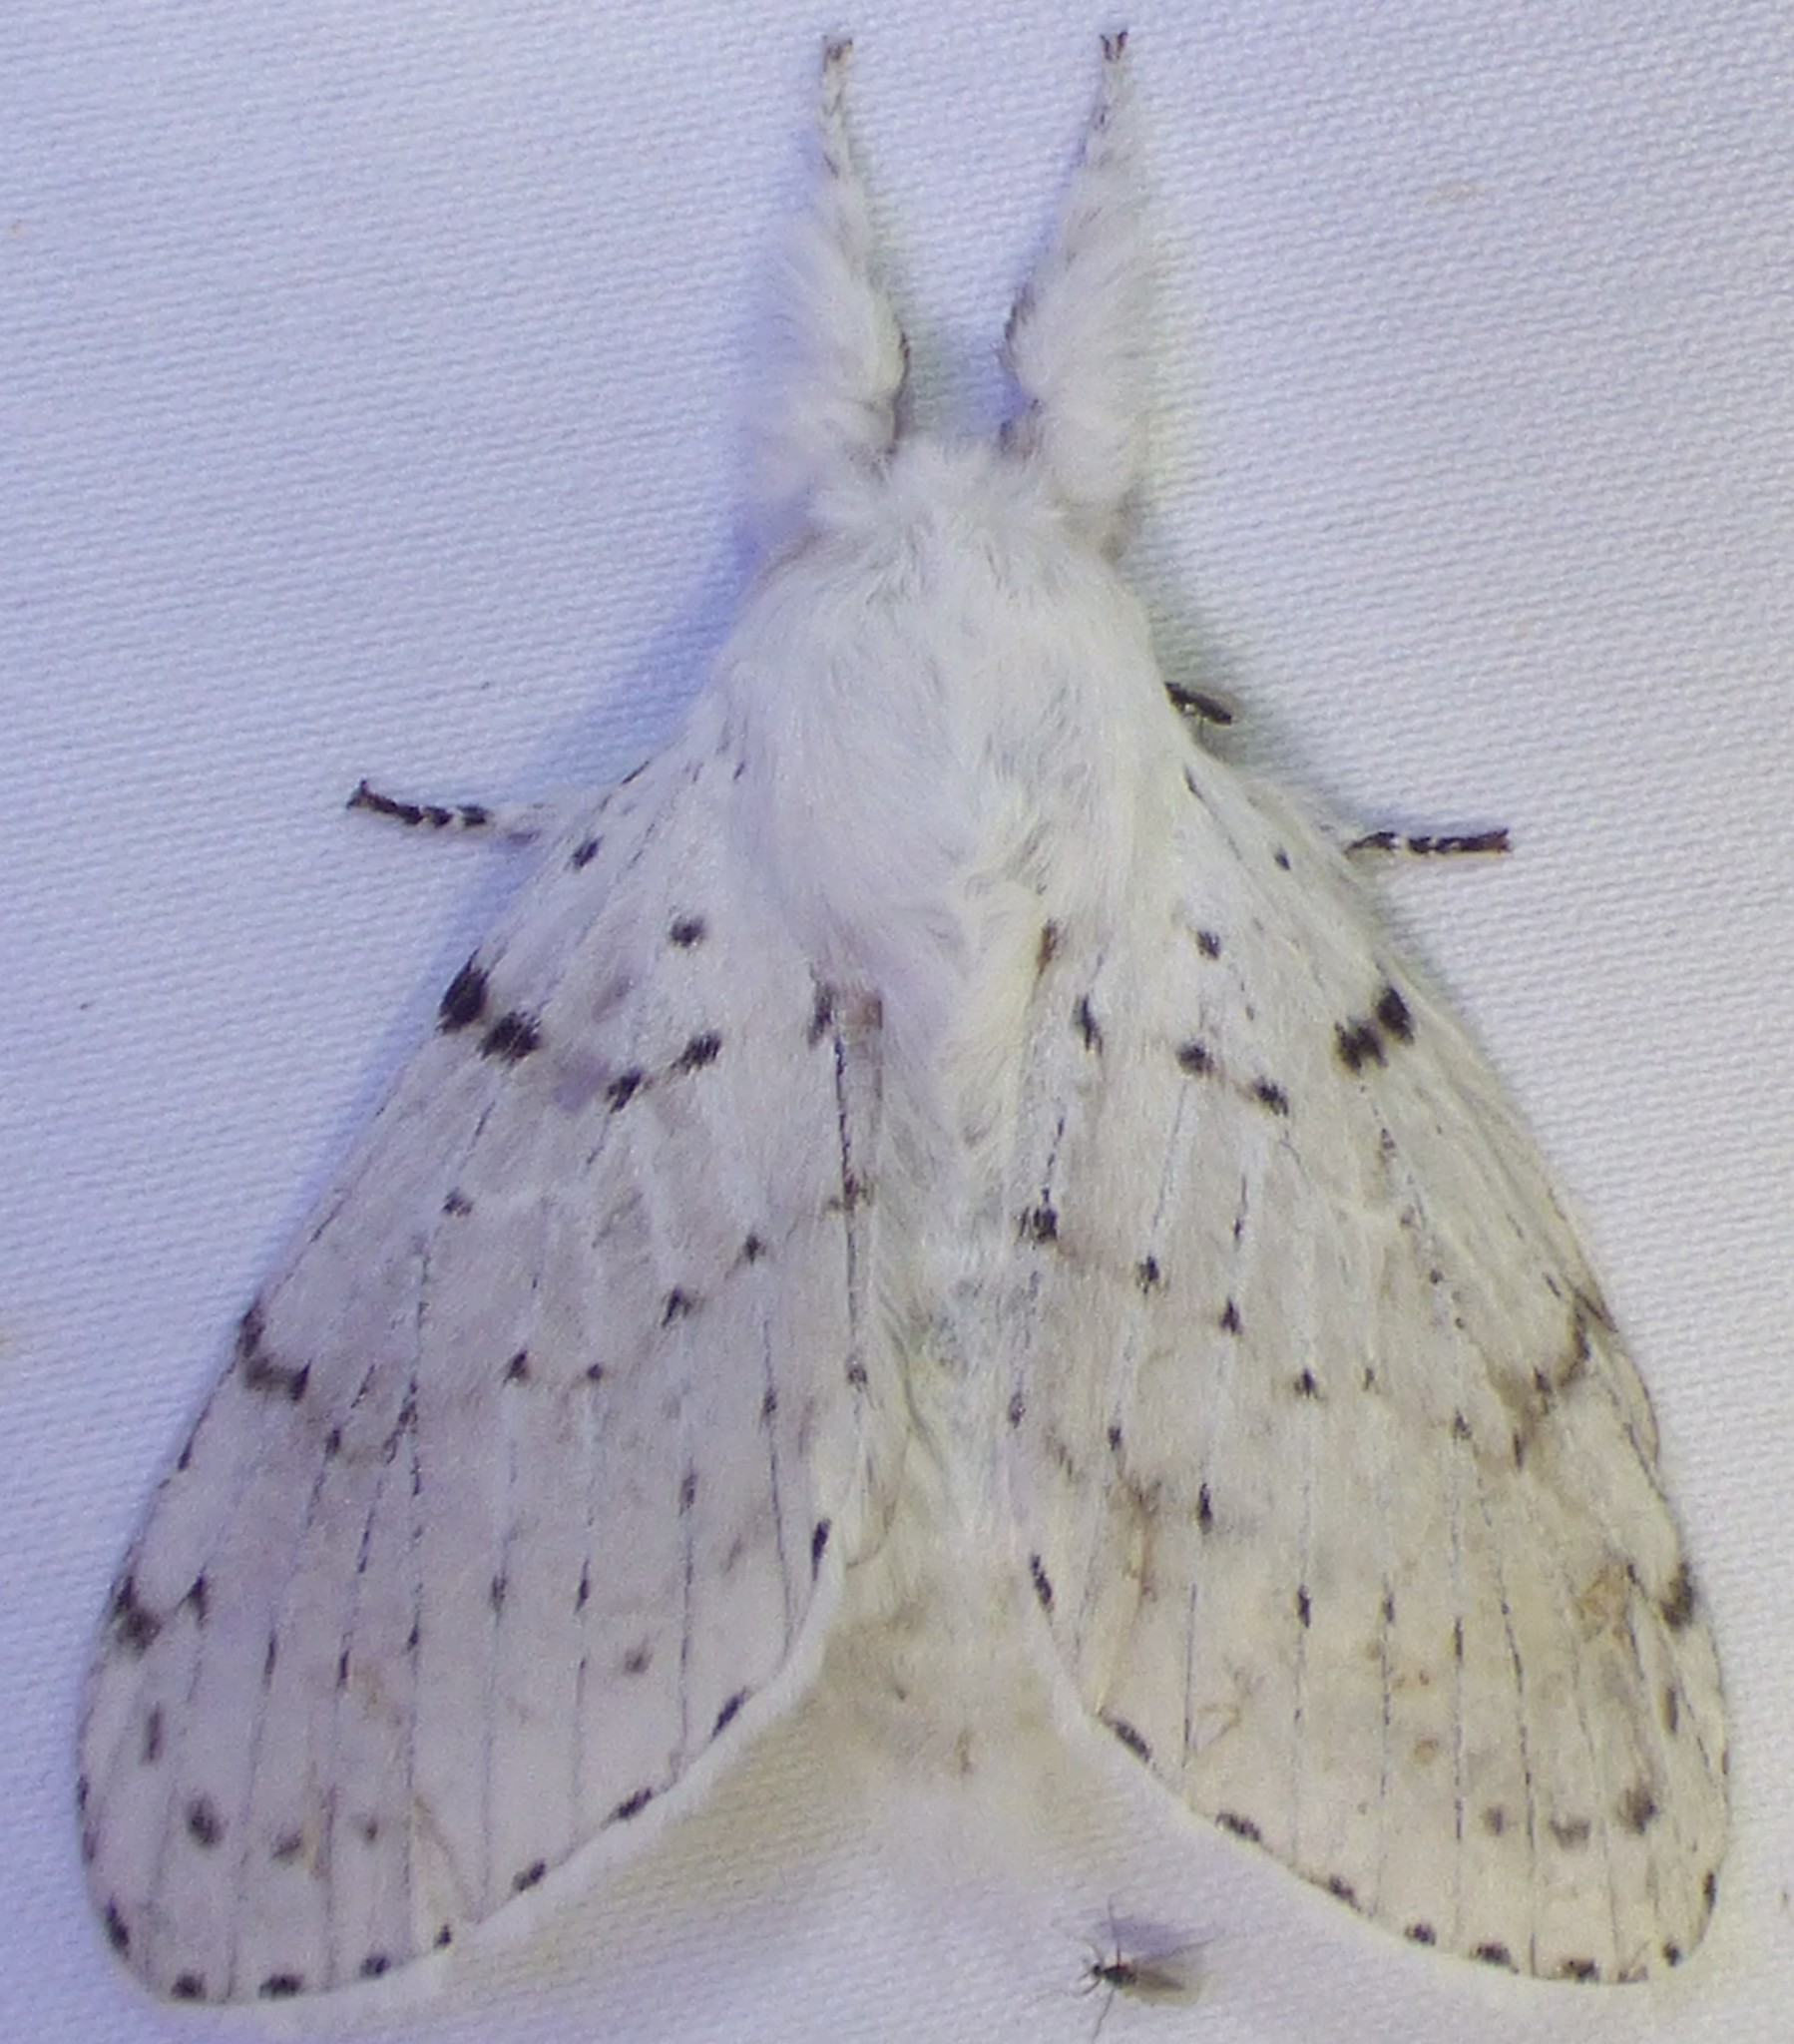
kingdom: Animalia
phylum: Arthropoda
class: Insecta
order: Lepidoptera
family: Lasiocampidae
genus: Artace
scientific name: Artace cribrarius
